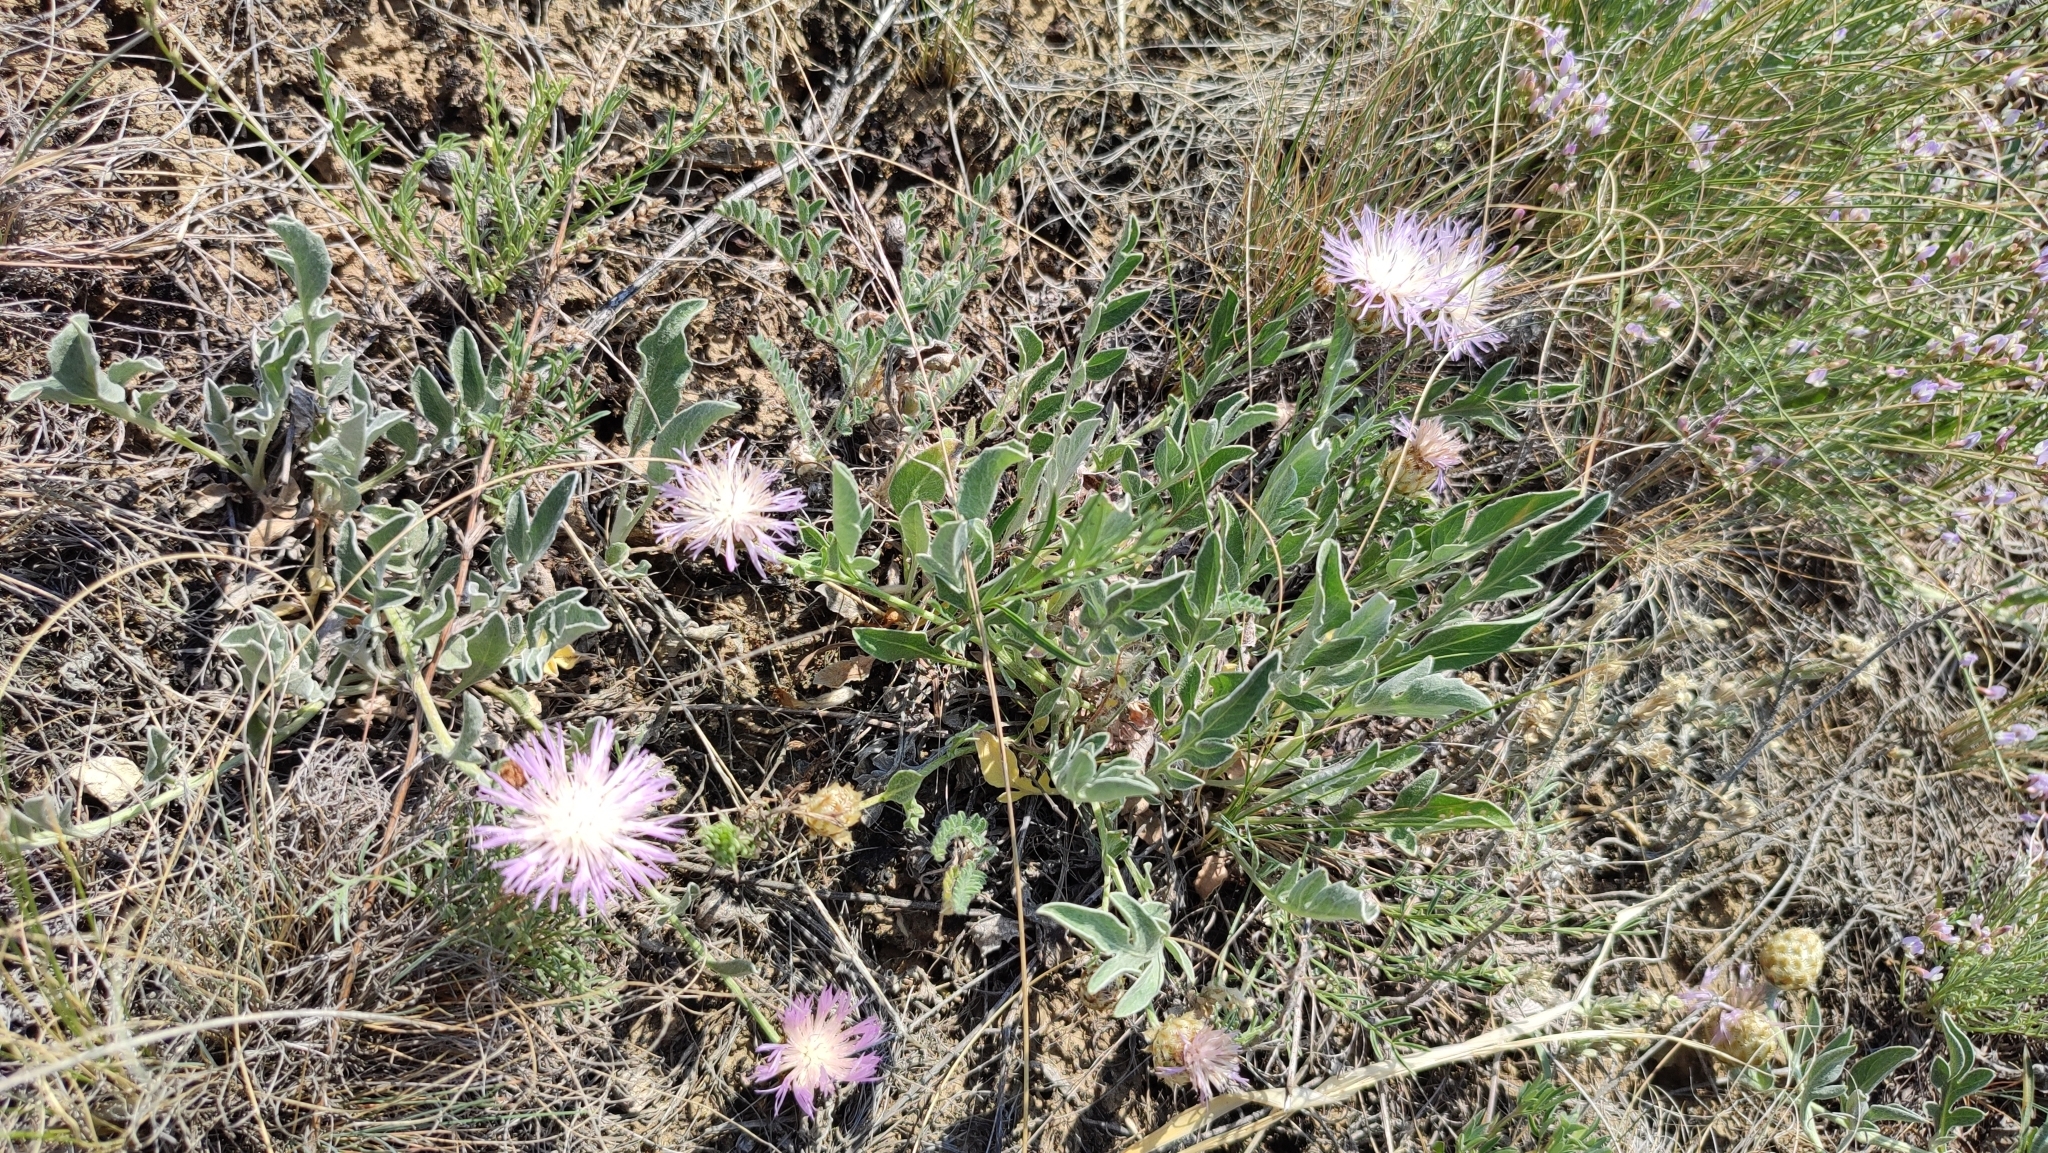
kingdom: Plantae
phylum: Tracheophyta
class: Magnoliopsida
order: Asterales
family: Asteraceae
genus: Psephellus
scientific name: Psephellus turgaicus
